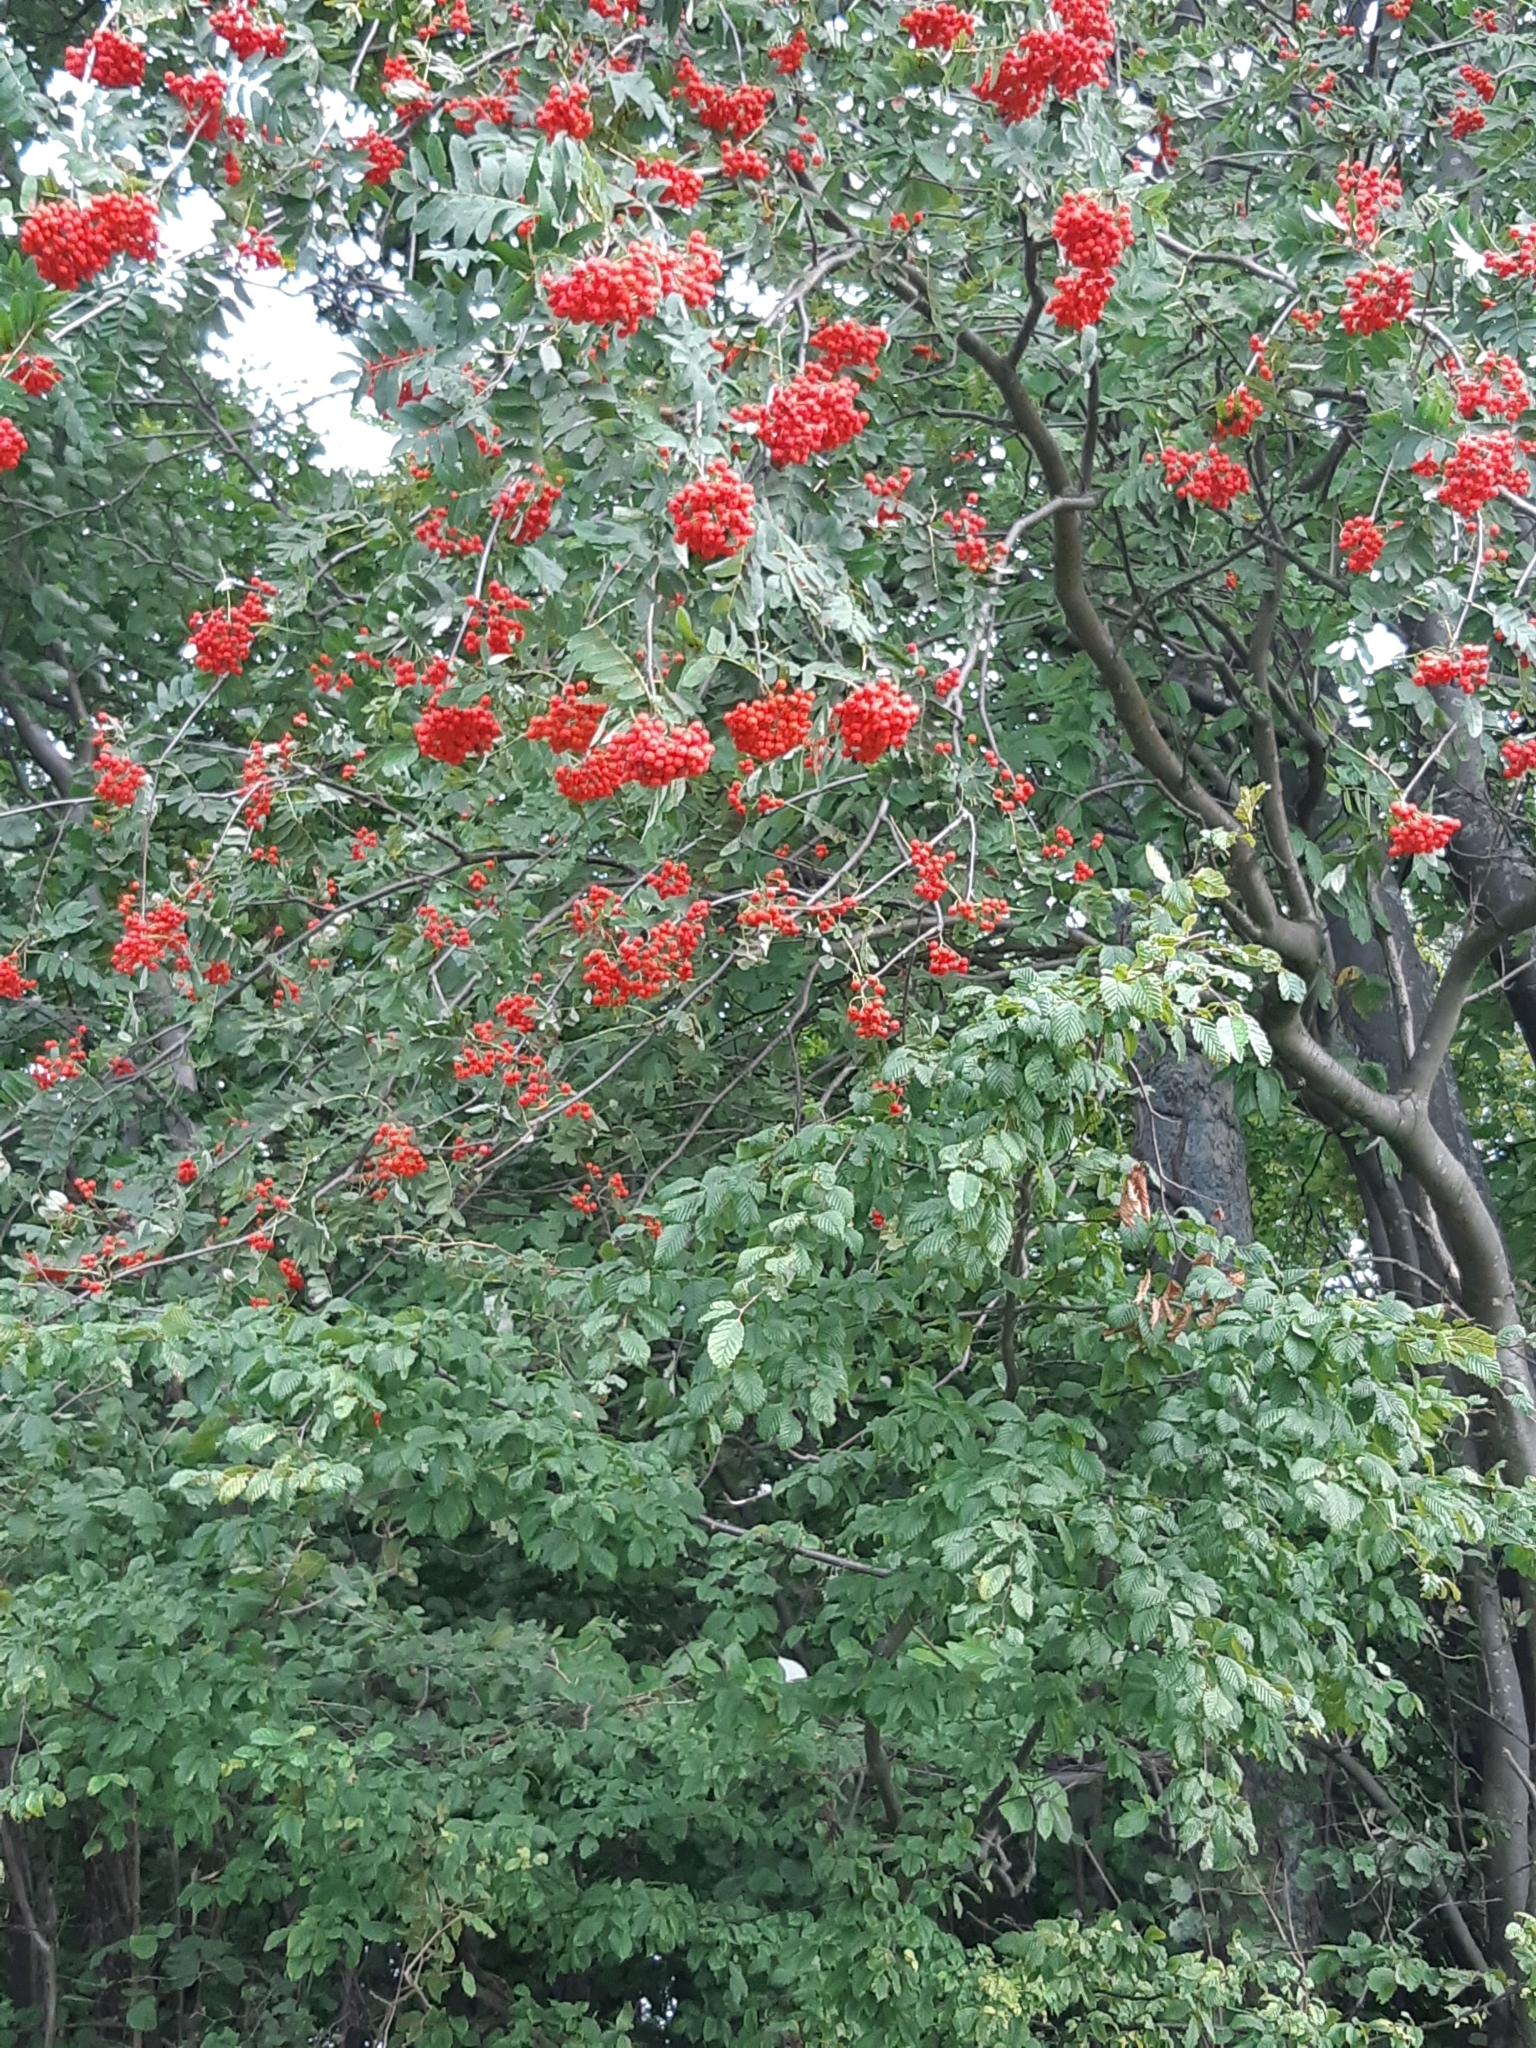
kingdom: Plantae
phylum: Tracheophyta
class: Magnoliopsida
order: Rosales
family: Rosaceae
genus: Sorbus
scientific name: Sorbus aucuparia
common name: Rowan
